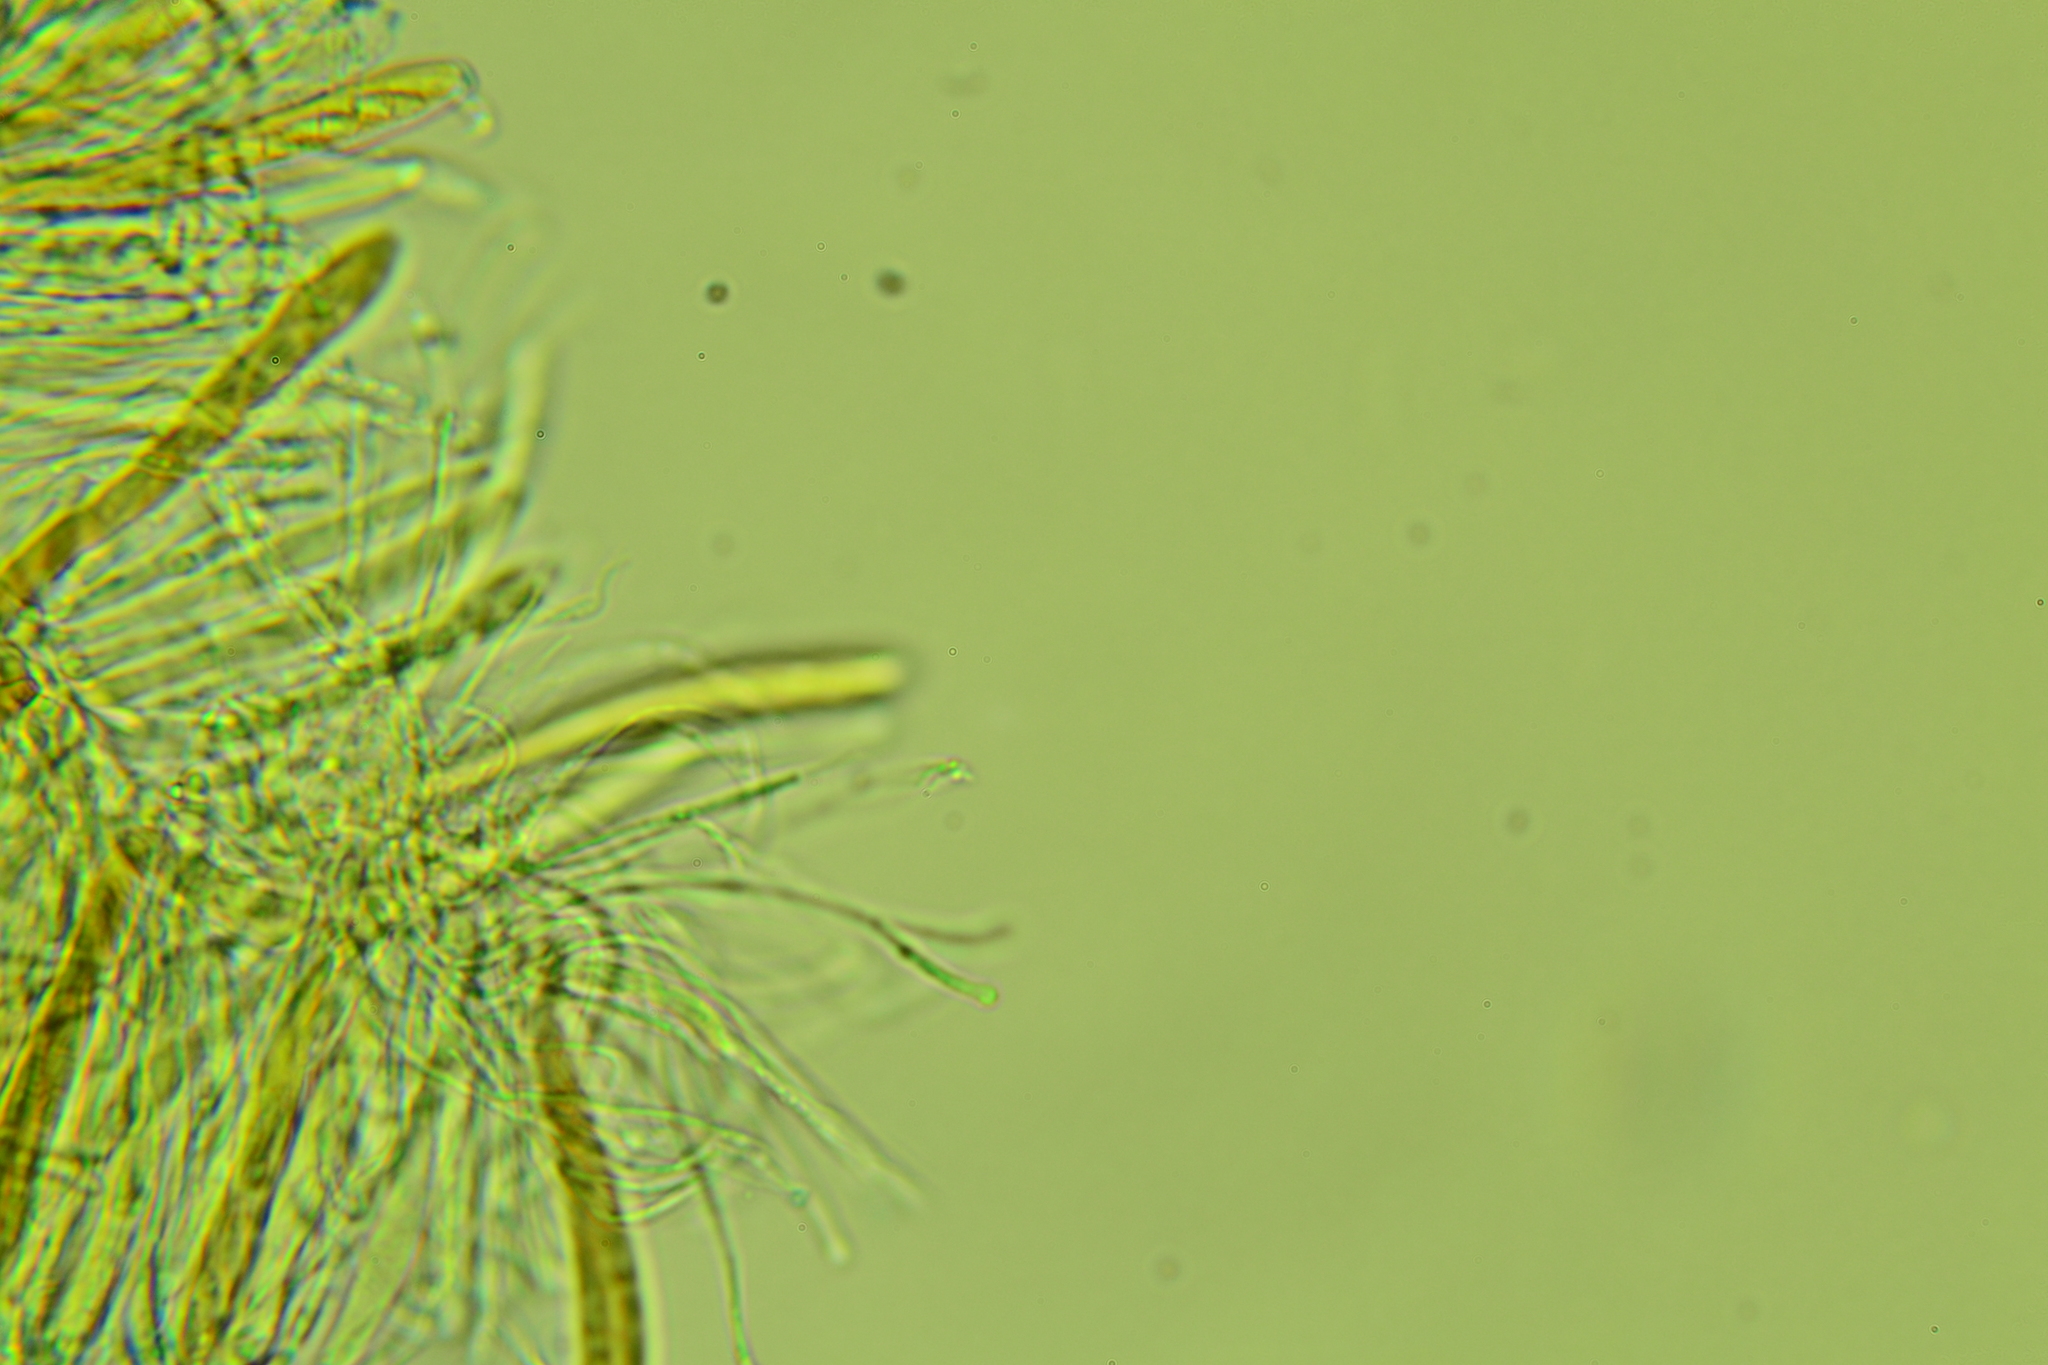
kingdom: Fungi
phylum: Ascomycota
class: Leotiomycetes
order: Helotiales
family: Arachnopezizaceae
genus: Arachnopeziza
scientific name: Arachnopeziza trabinelloides
